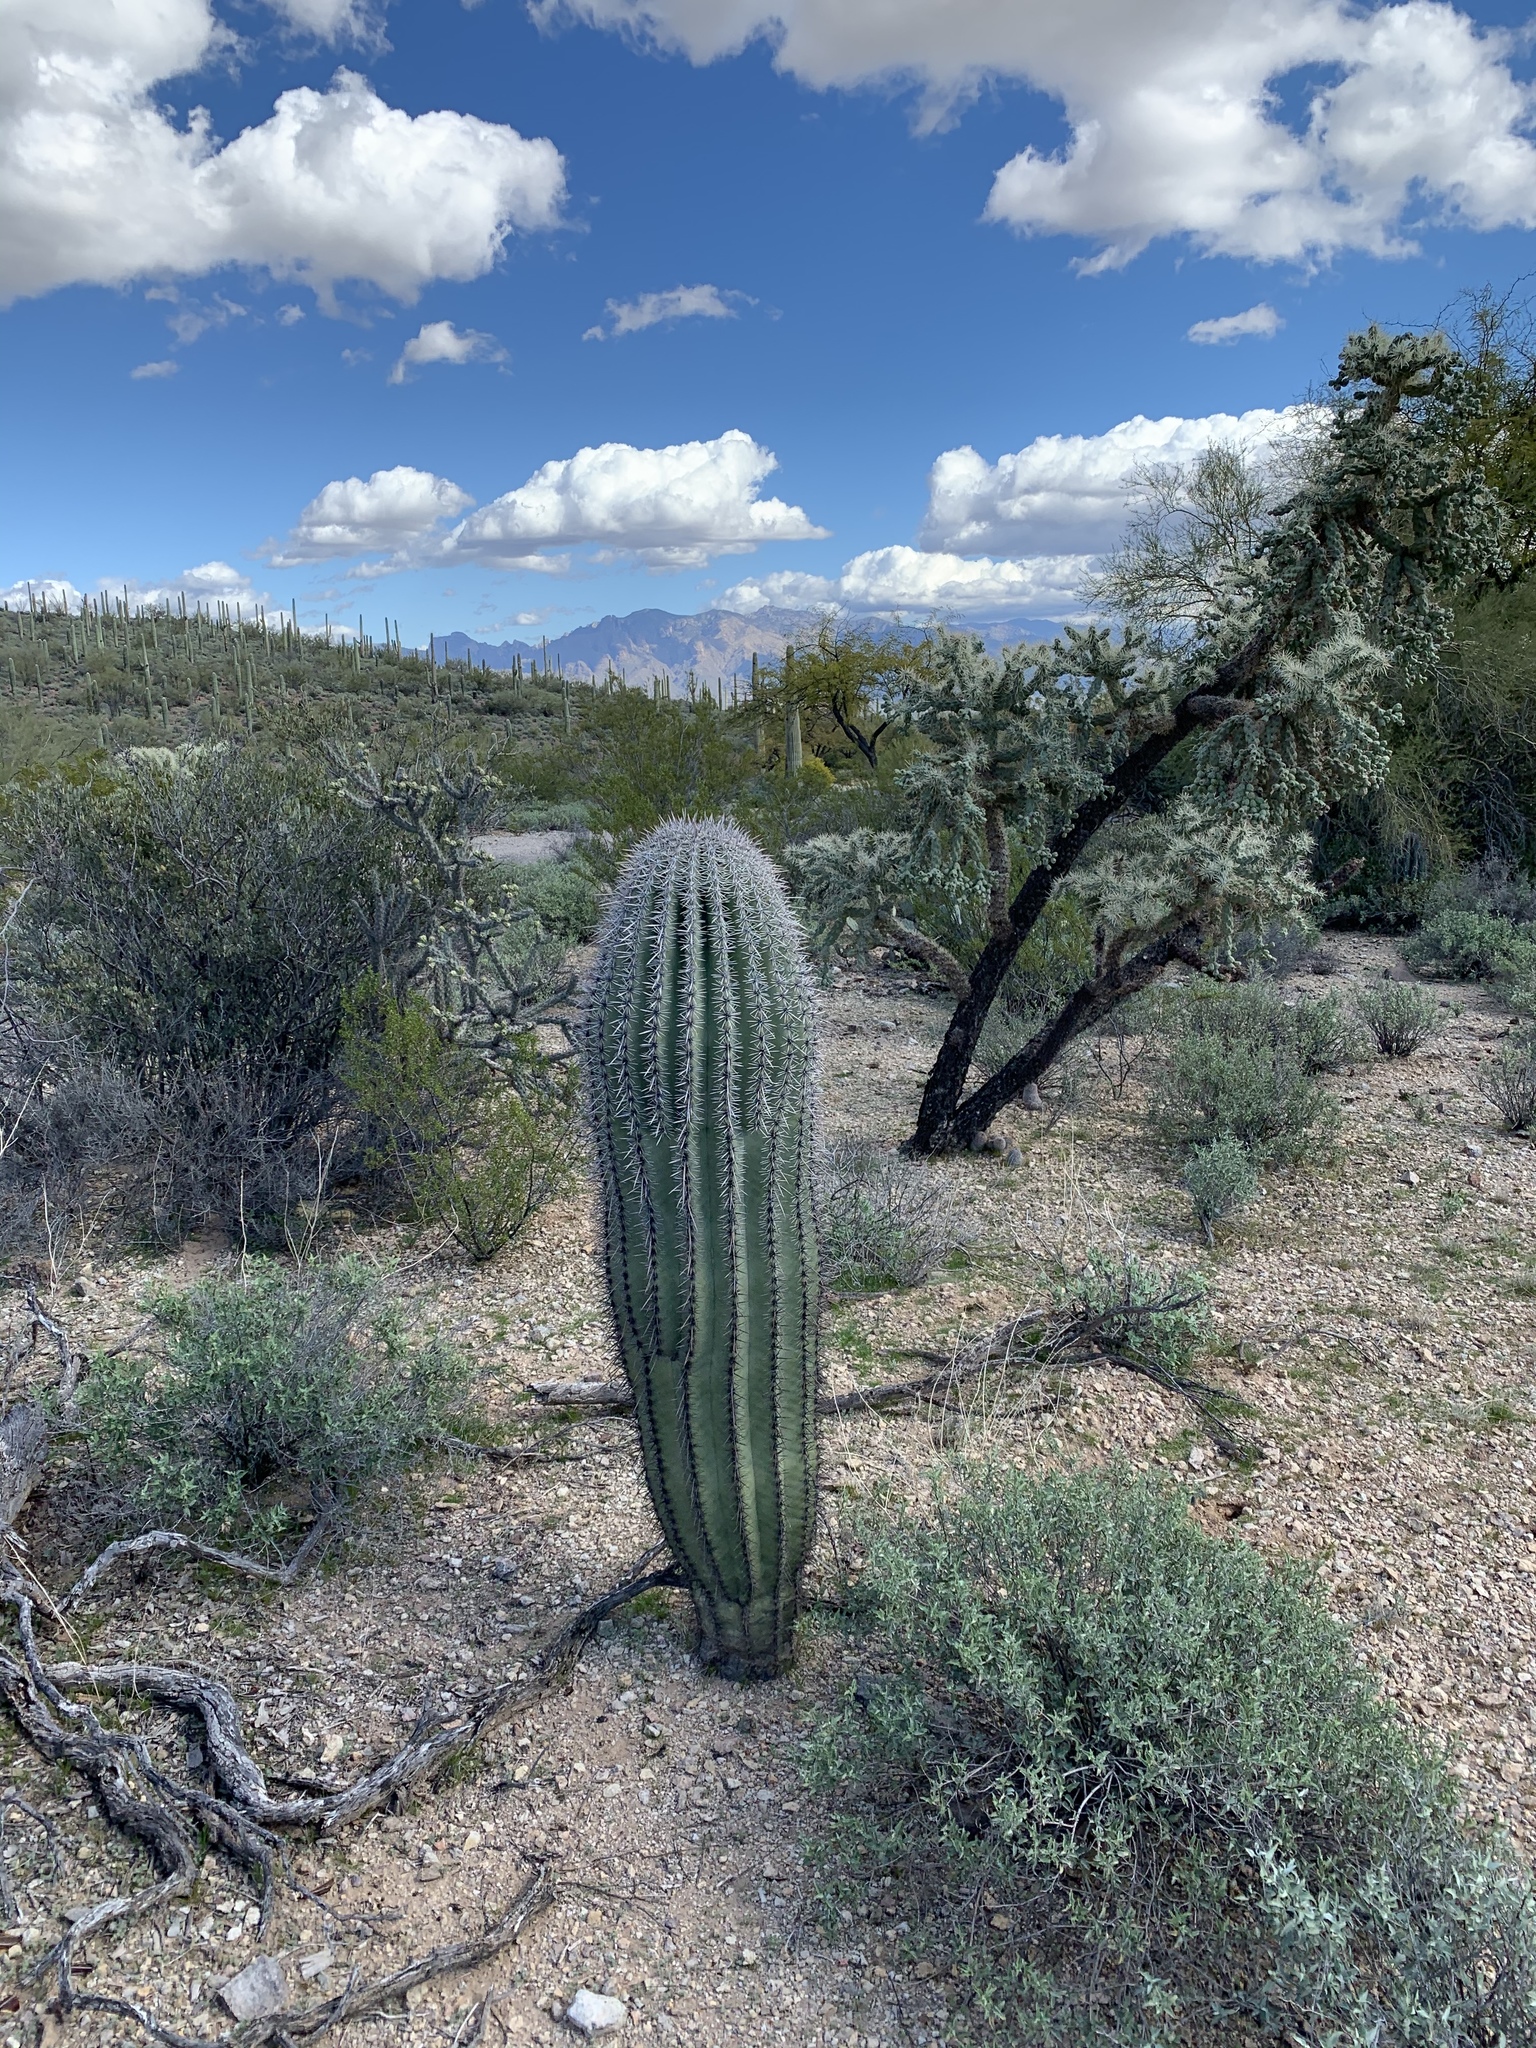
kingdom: Plantae
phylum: Tracheophyta
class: Magnoliopsida
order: Caryophyllales
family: Cactaceae
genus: Carnegiea
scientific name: Carnegiea gigantea
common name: Saguaro
